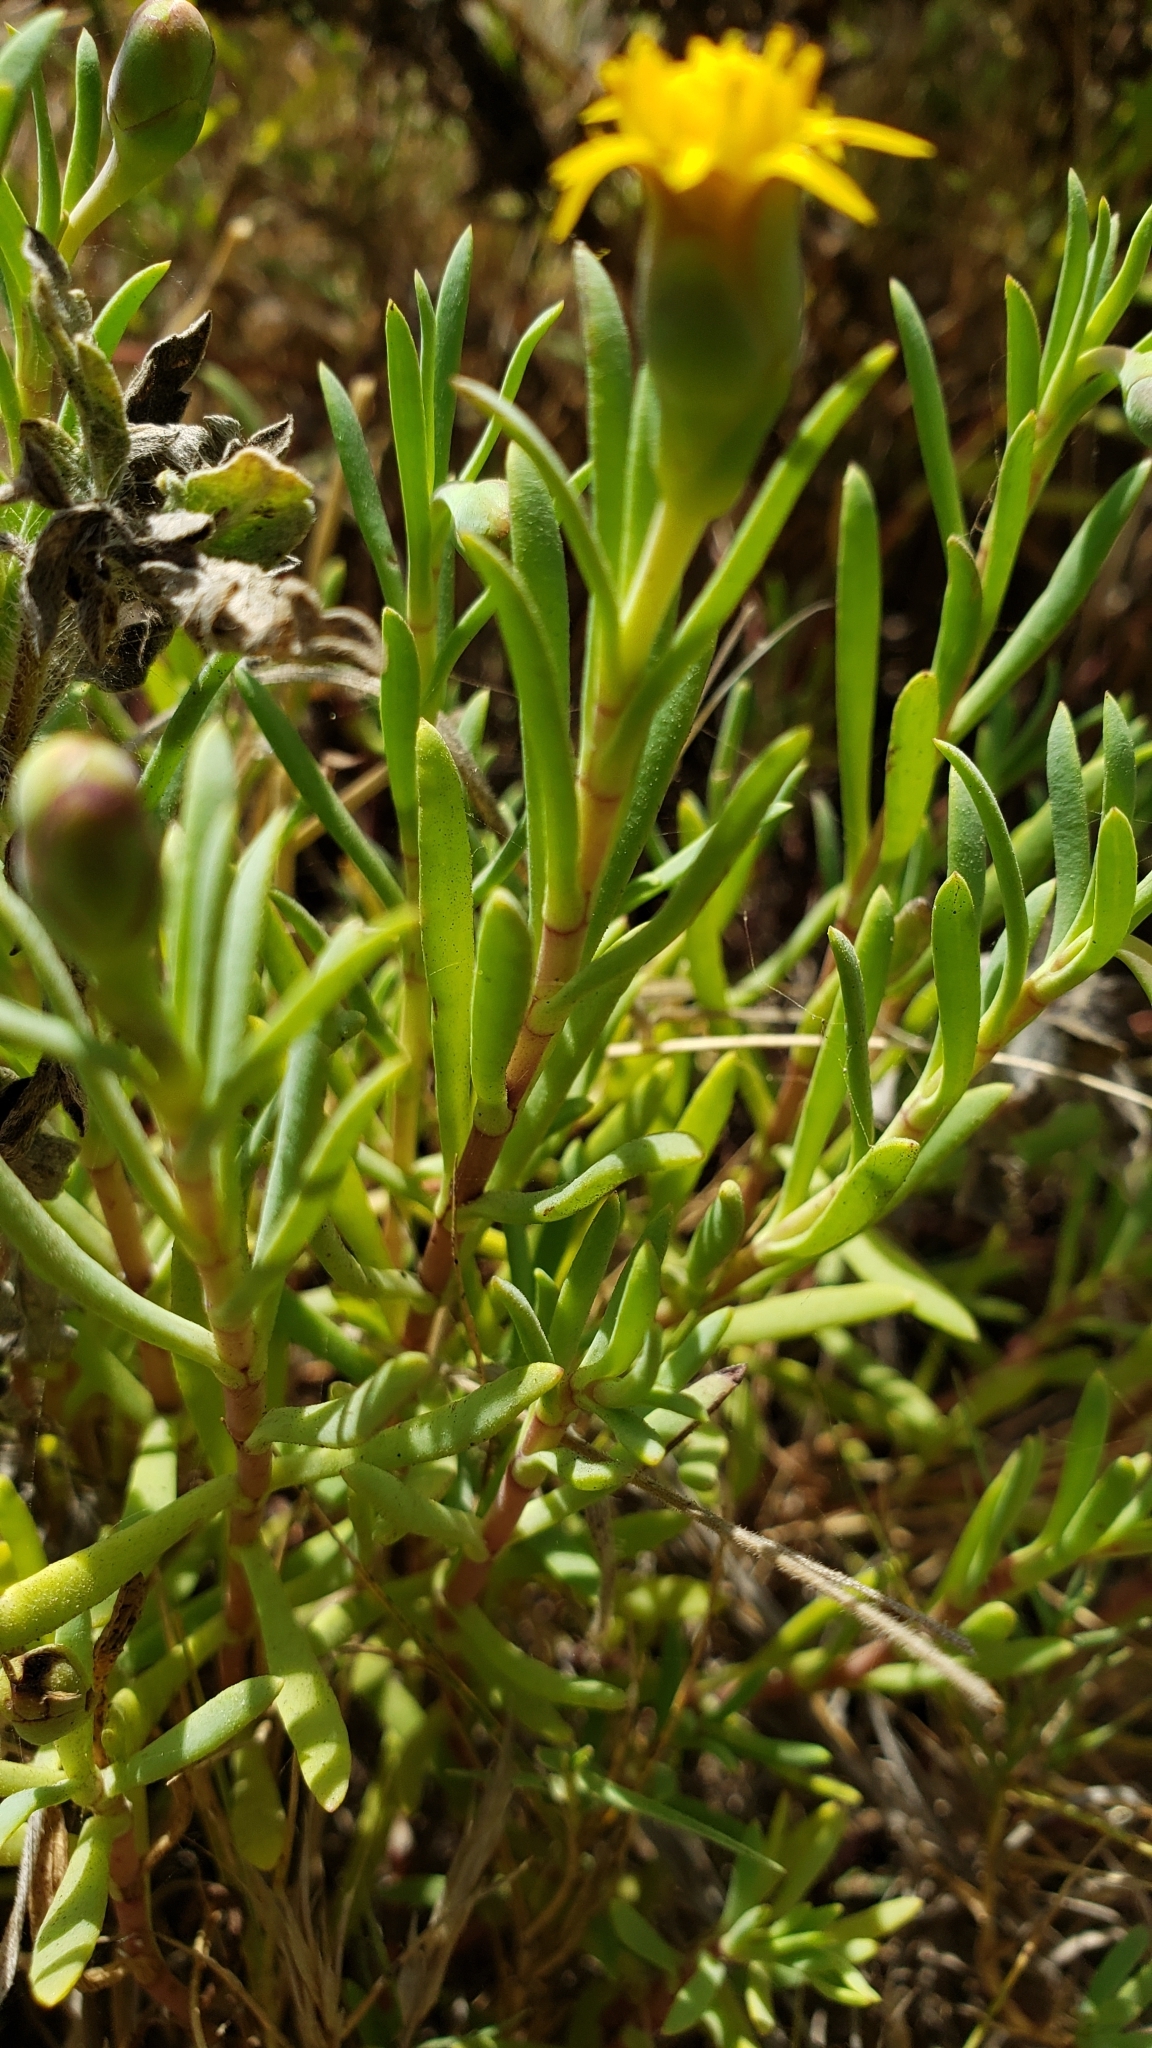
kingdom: Plantae
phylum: Tracheophyta
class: Magnoliopsida
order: Asterales
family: Asteraceae
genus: Jaumea
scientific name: Jaumea carnosa
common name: Fleshy jaumea
